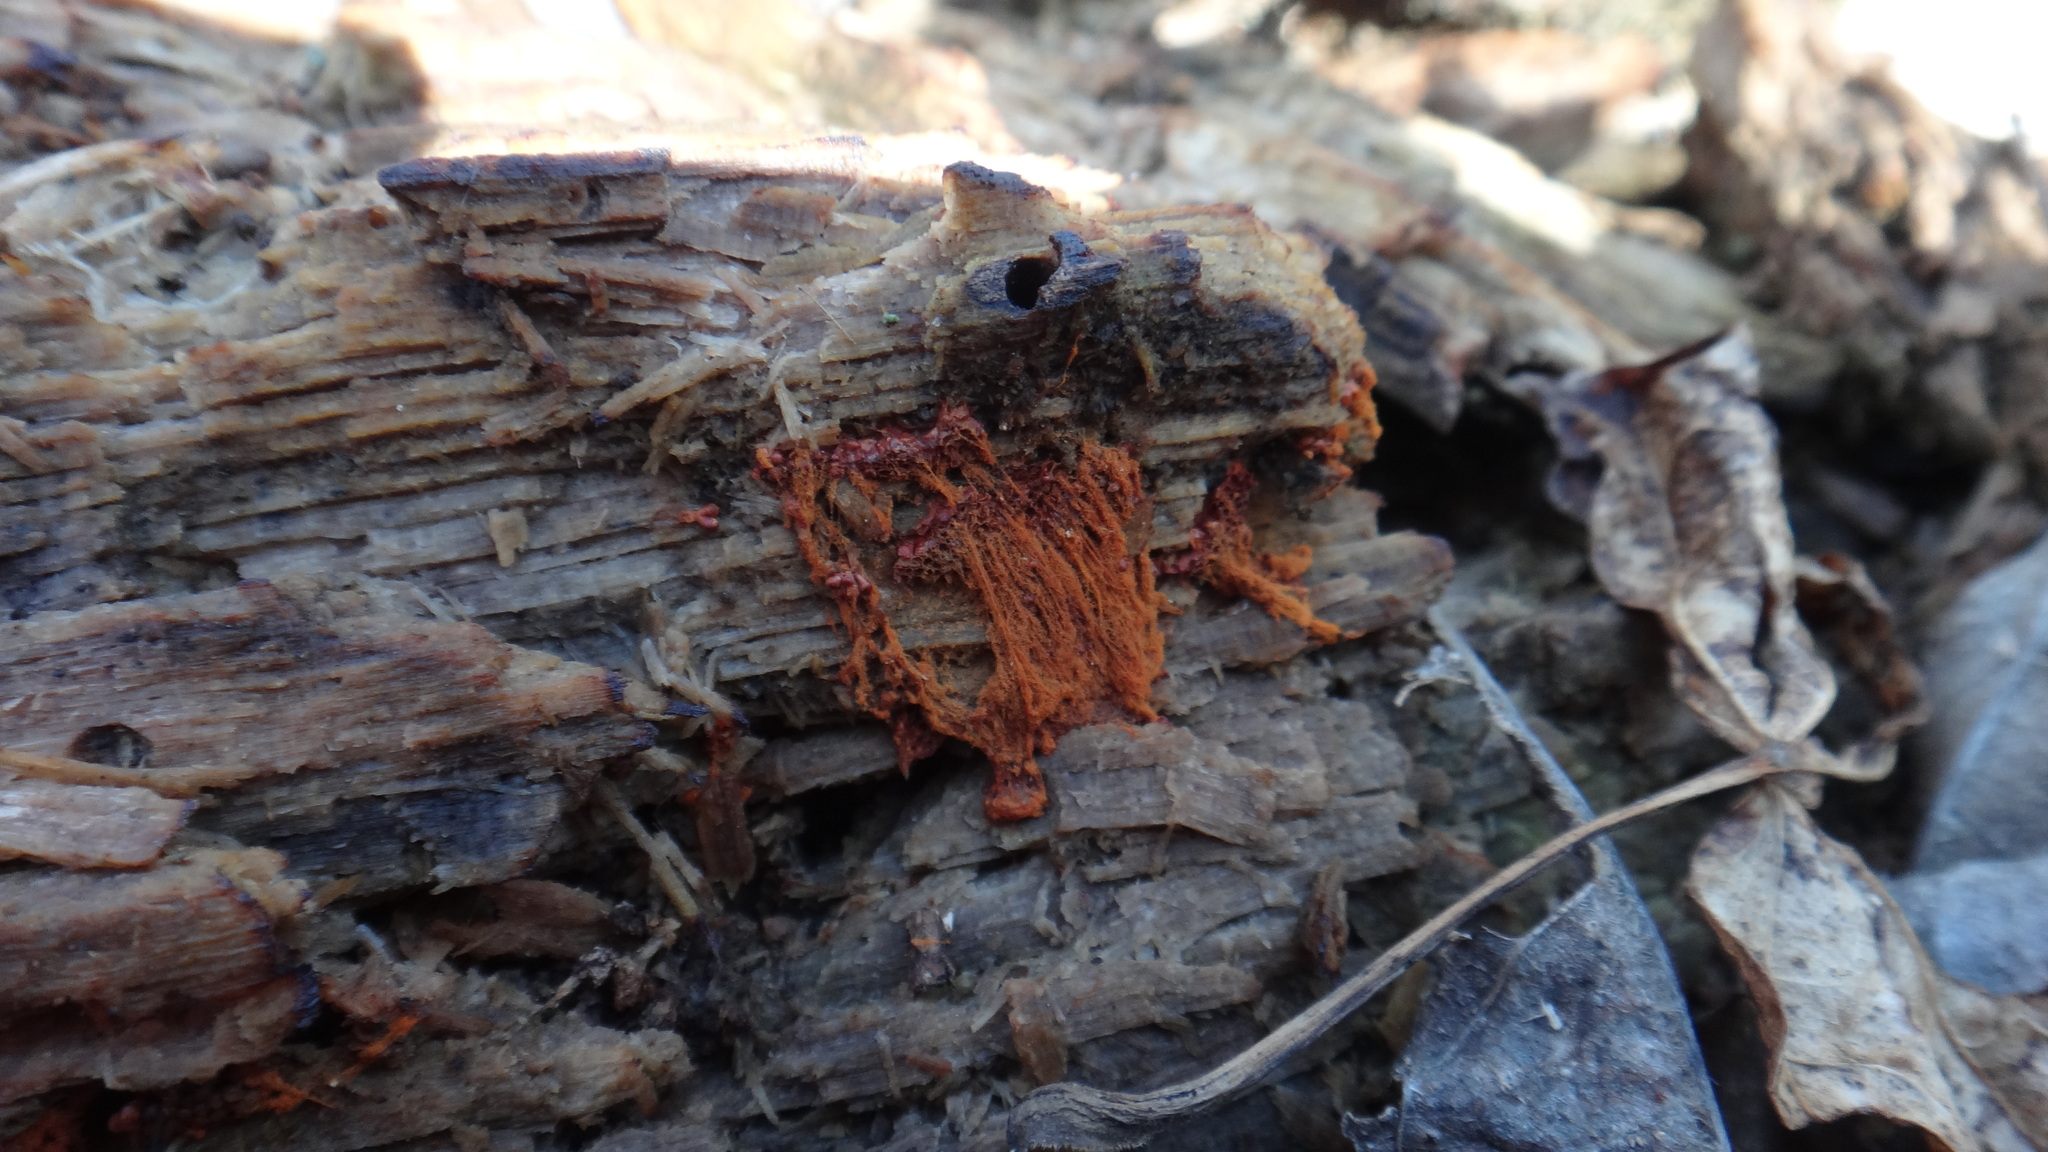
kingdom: Protozoa
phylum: Mycetozoa
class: Myxomycetes
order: Trichiales
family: Trichiaceae
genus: Metatrichia
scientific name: Metatrichia vesparia
